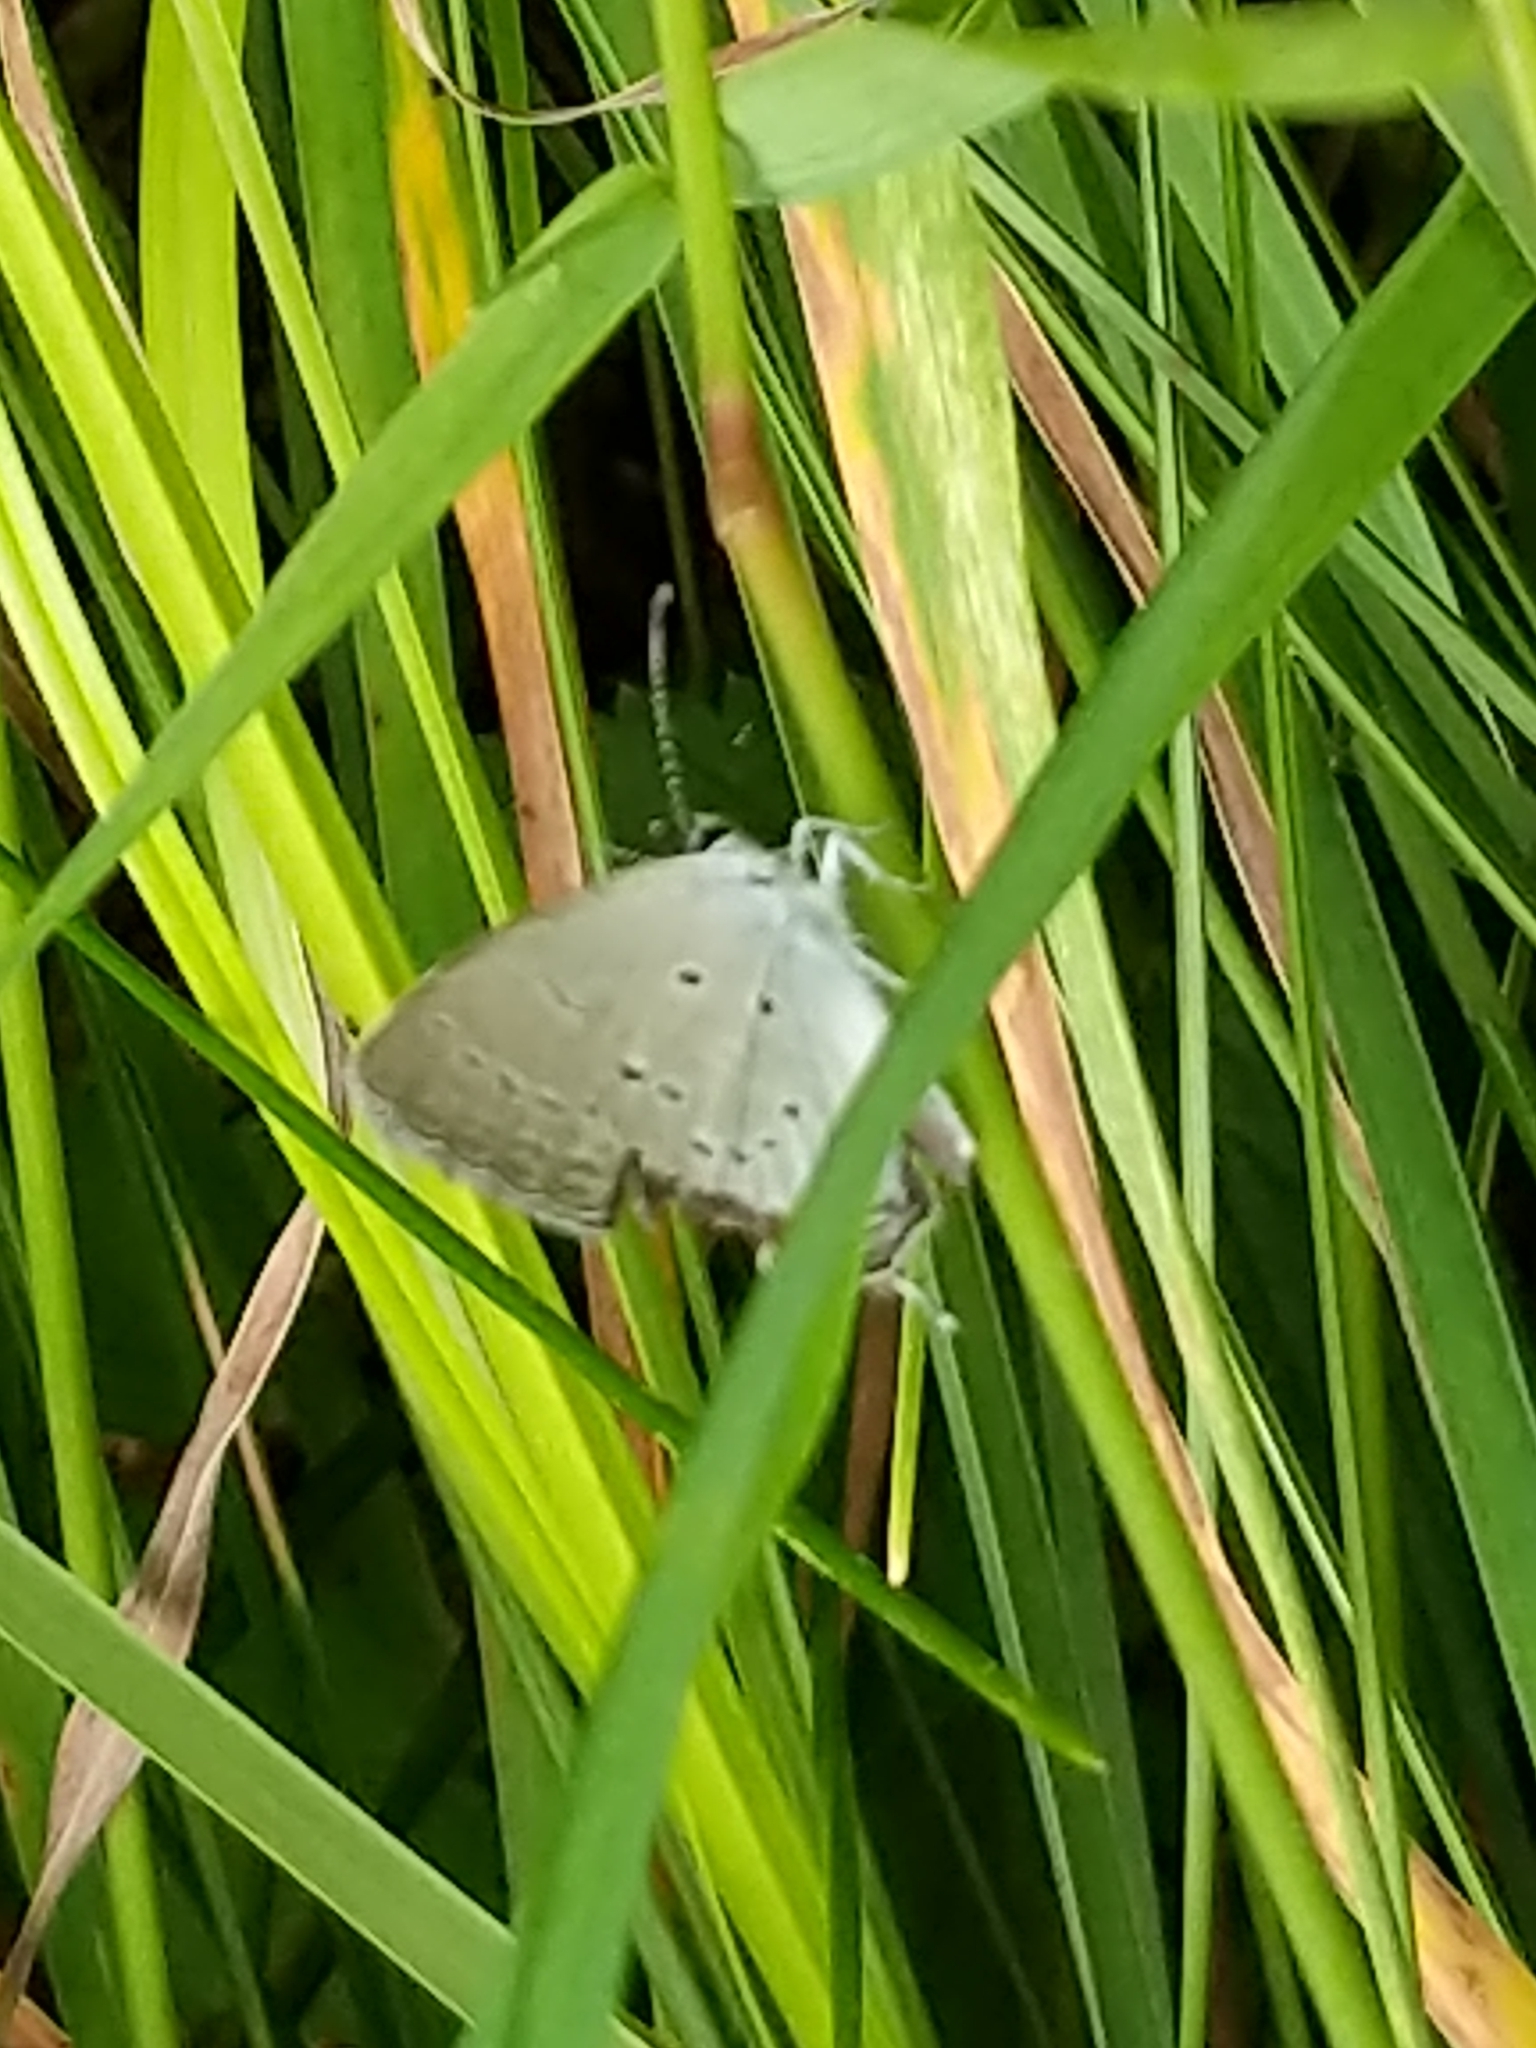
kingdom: Animalia
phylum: Arthropoda
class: Insecta
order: Lepidoptera
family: Lycaenidae
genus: Elkalyce
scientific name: Elkalyce comyntas
